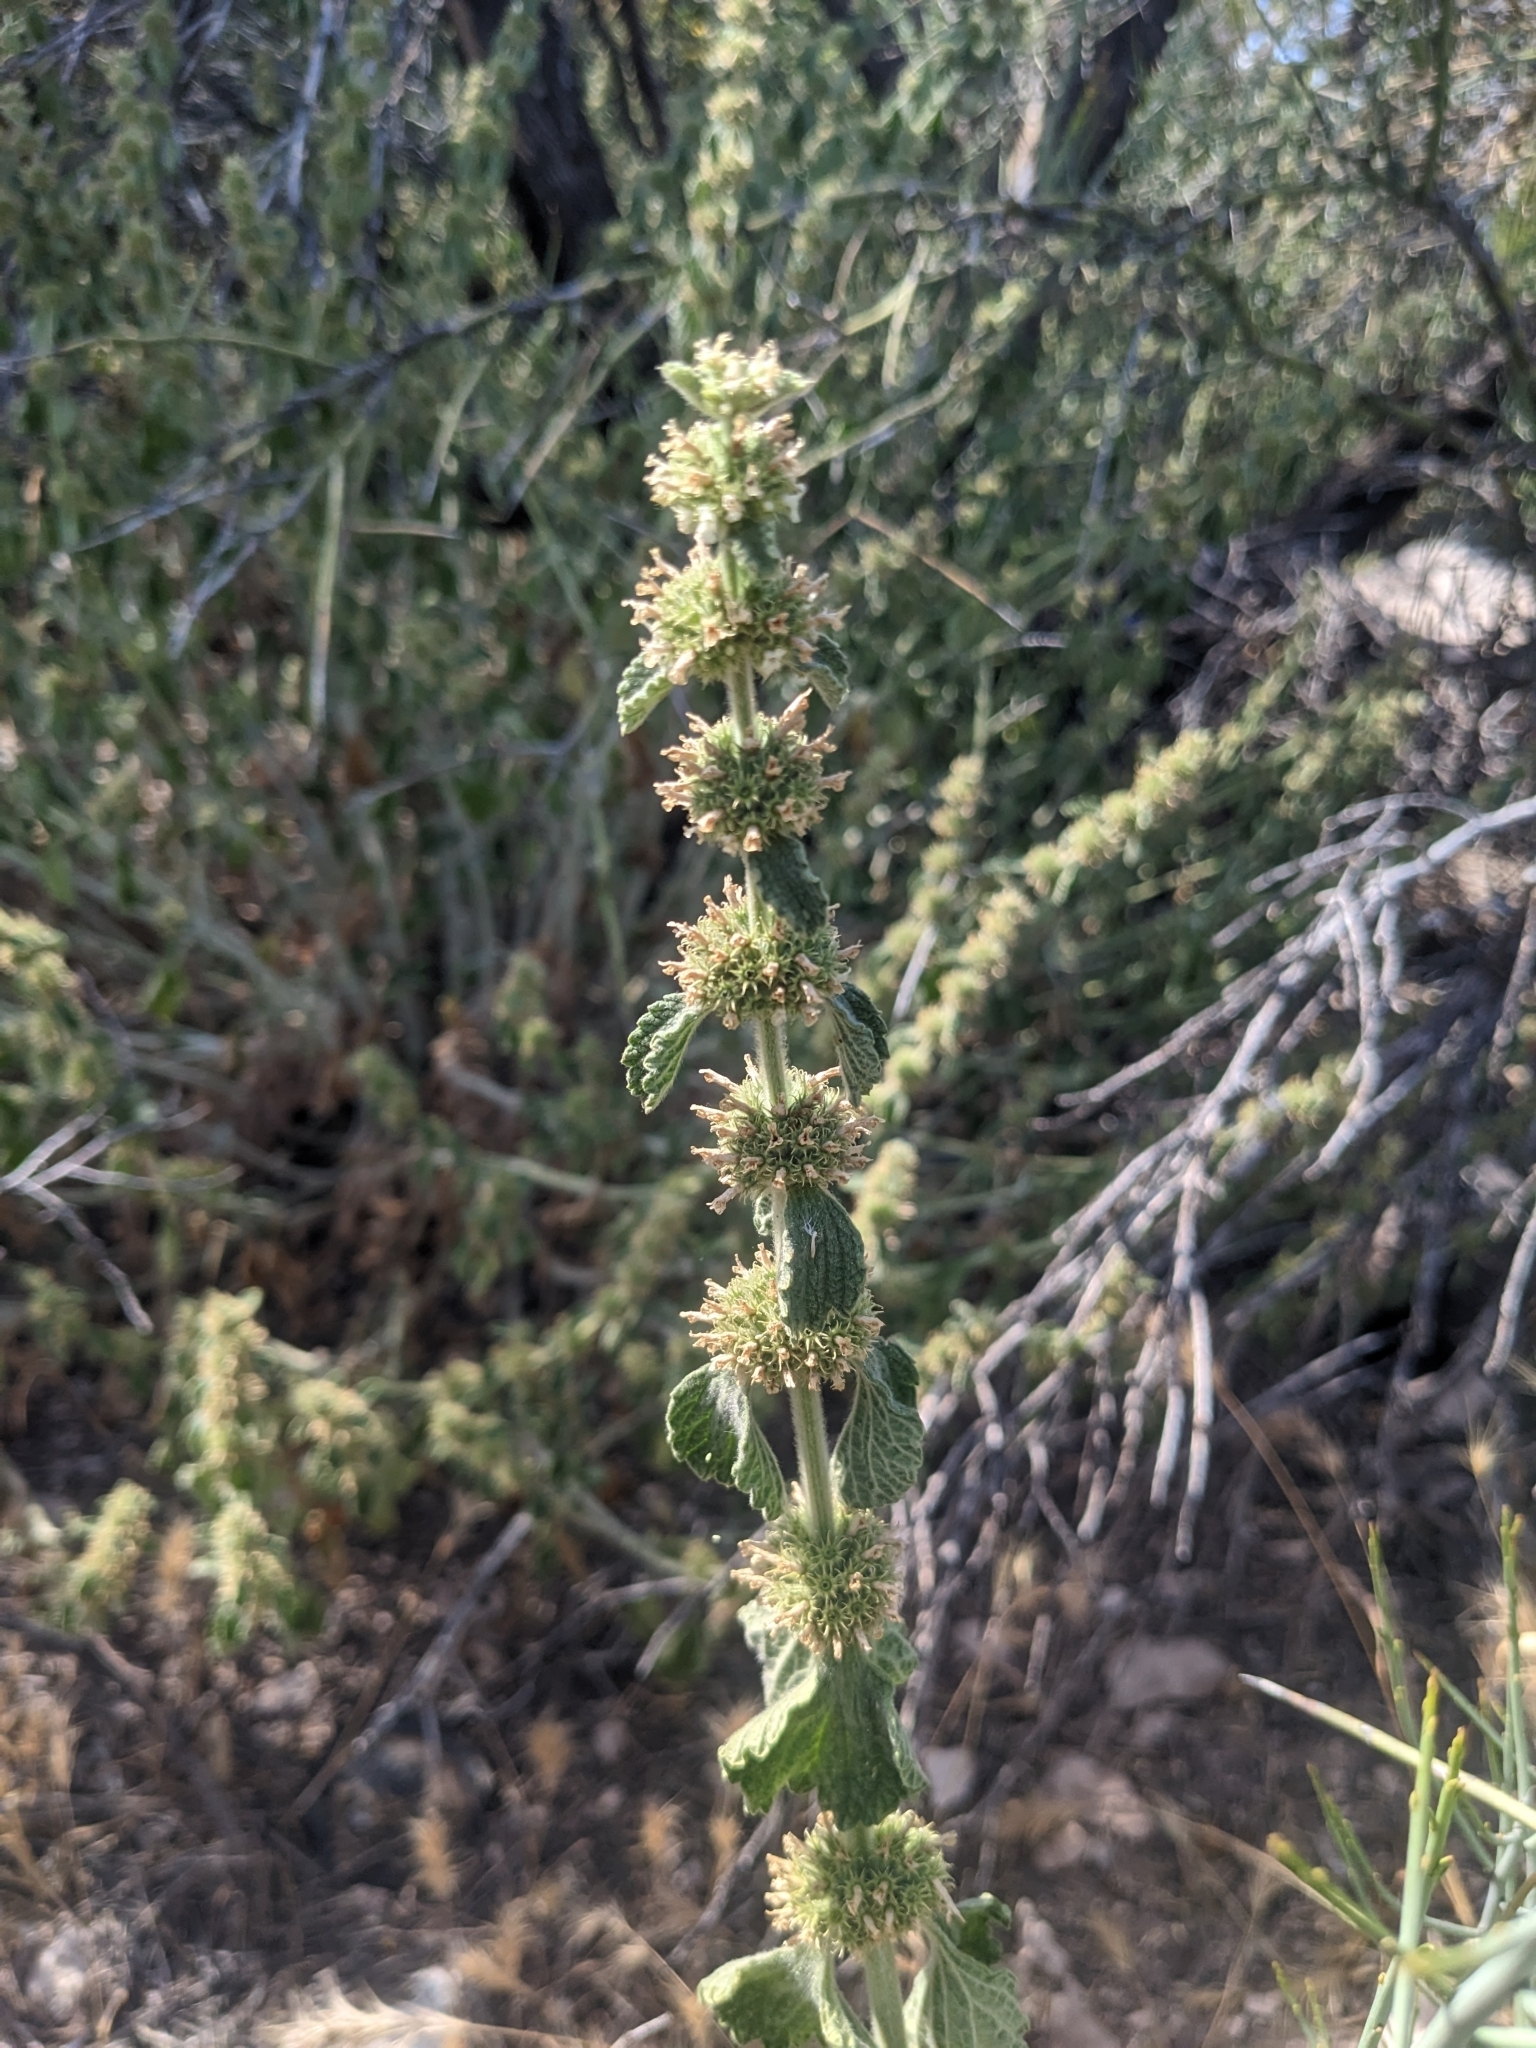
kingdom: Plantae
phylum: Tracheophyta
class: Magnoliopsida
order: Lamiales
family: Lamiaceae
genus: Marrubium
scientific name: Marrubium vulgare
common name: Horehound
